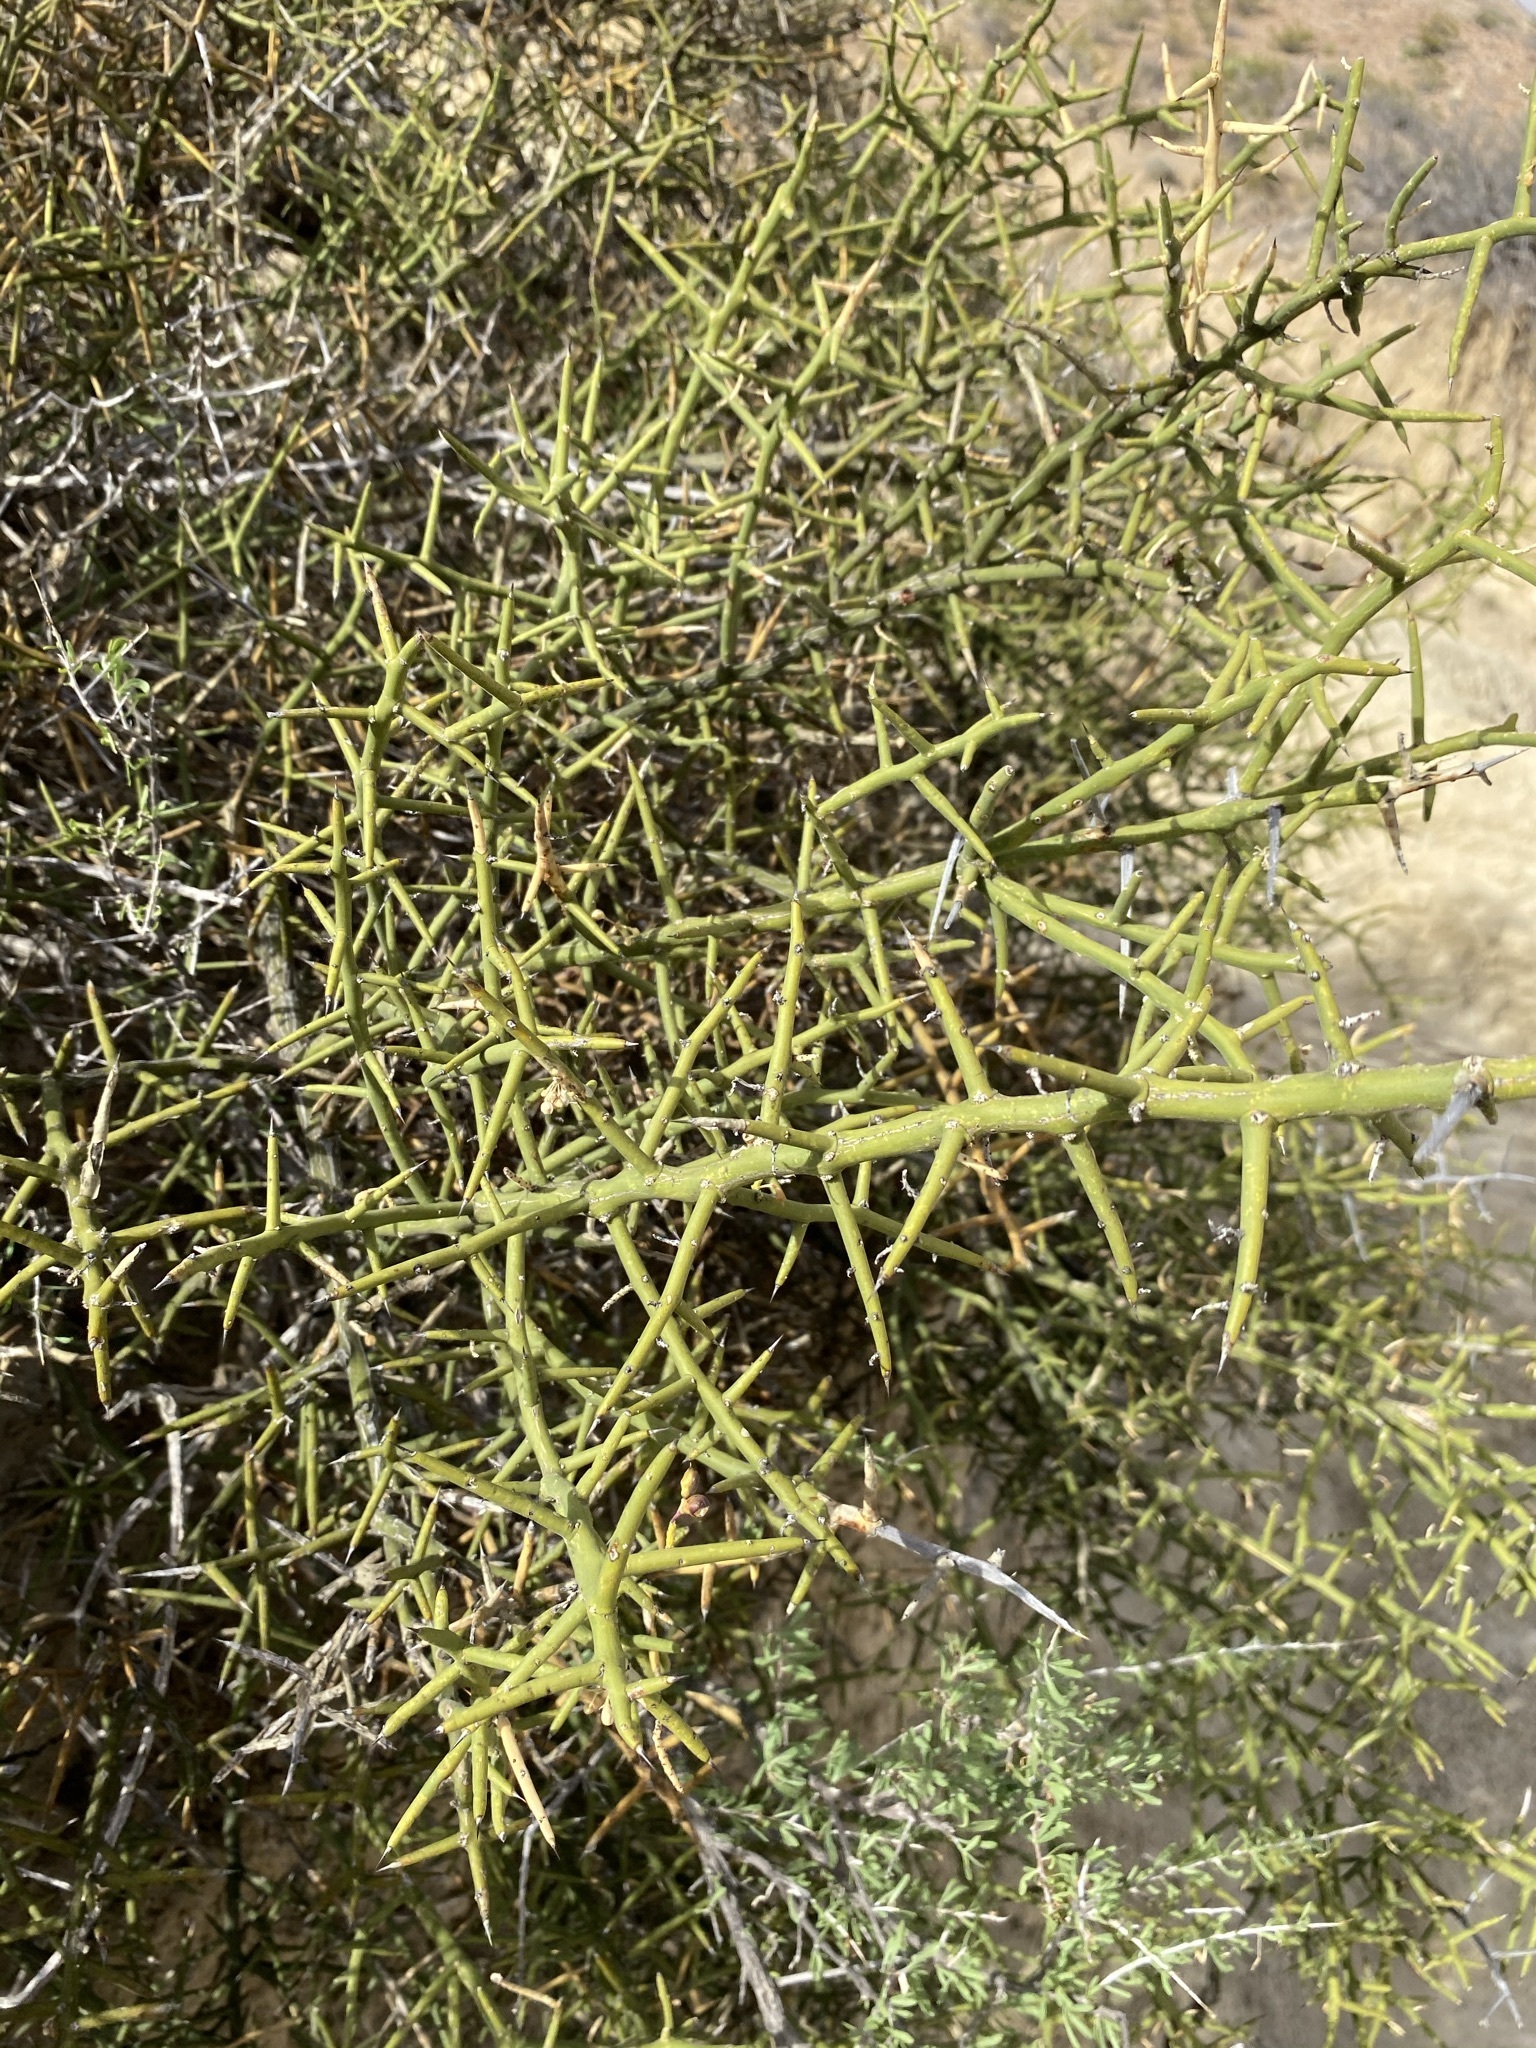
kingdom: Plantae
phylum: Tracheophyta
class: Magnoliopsida
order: Brassicales
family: Koeberliniaceae
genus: Koeberlinia
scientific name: Koeberlinia spinosa
